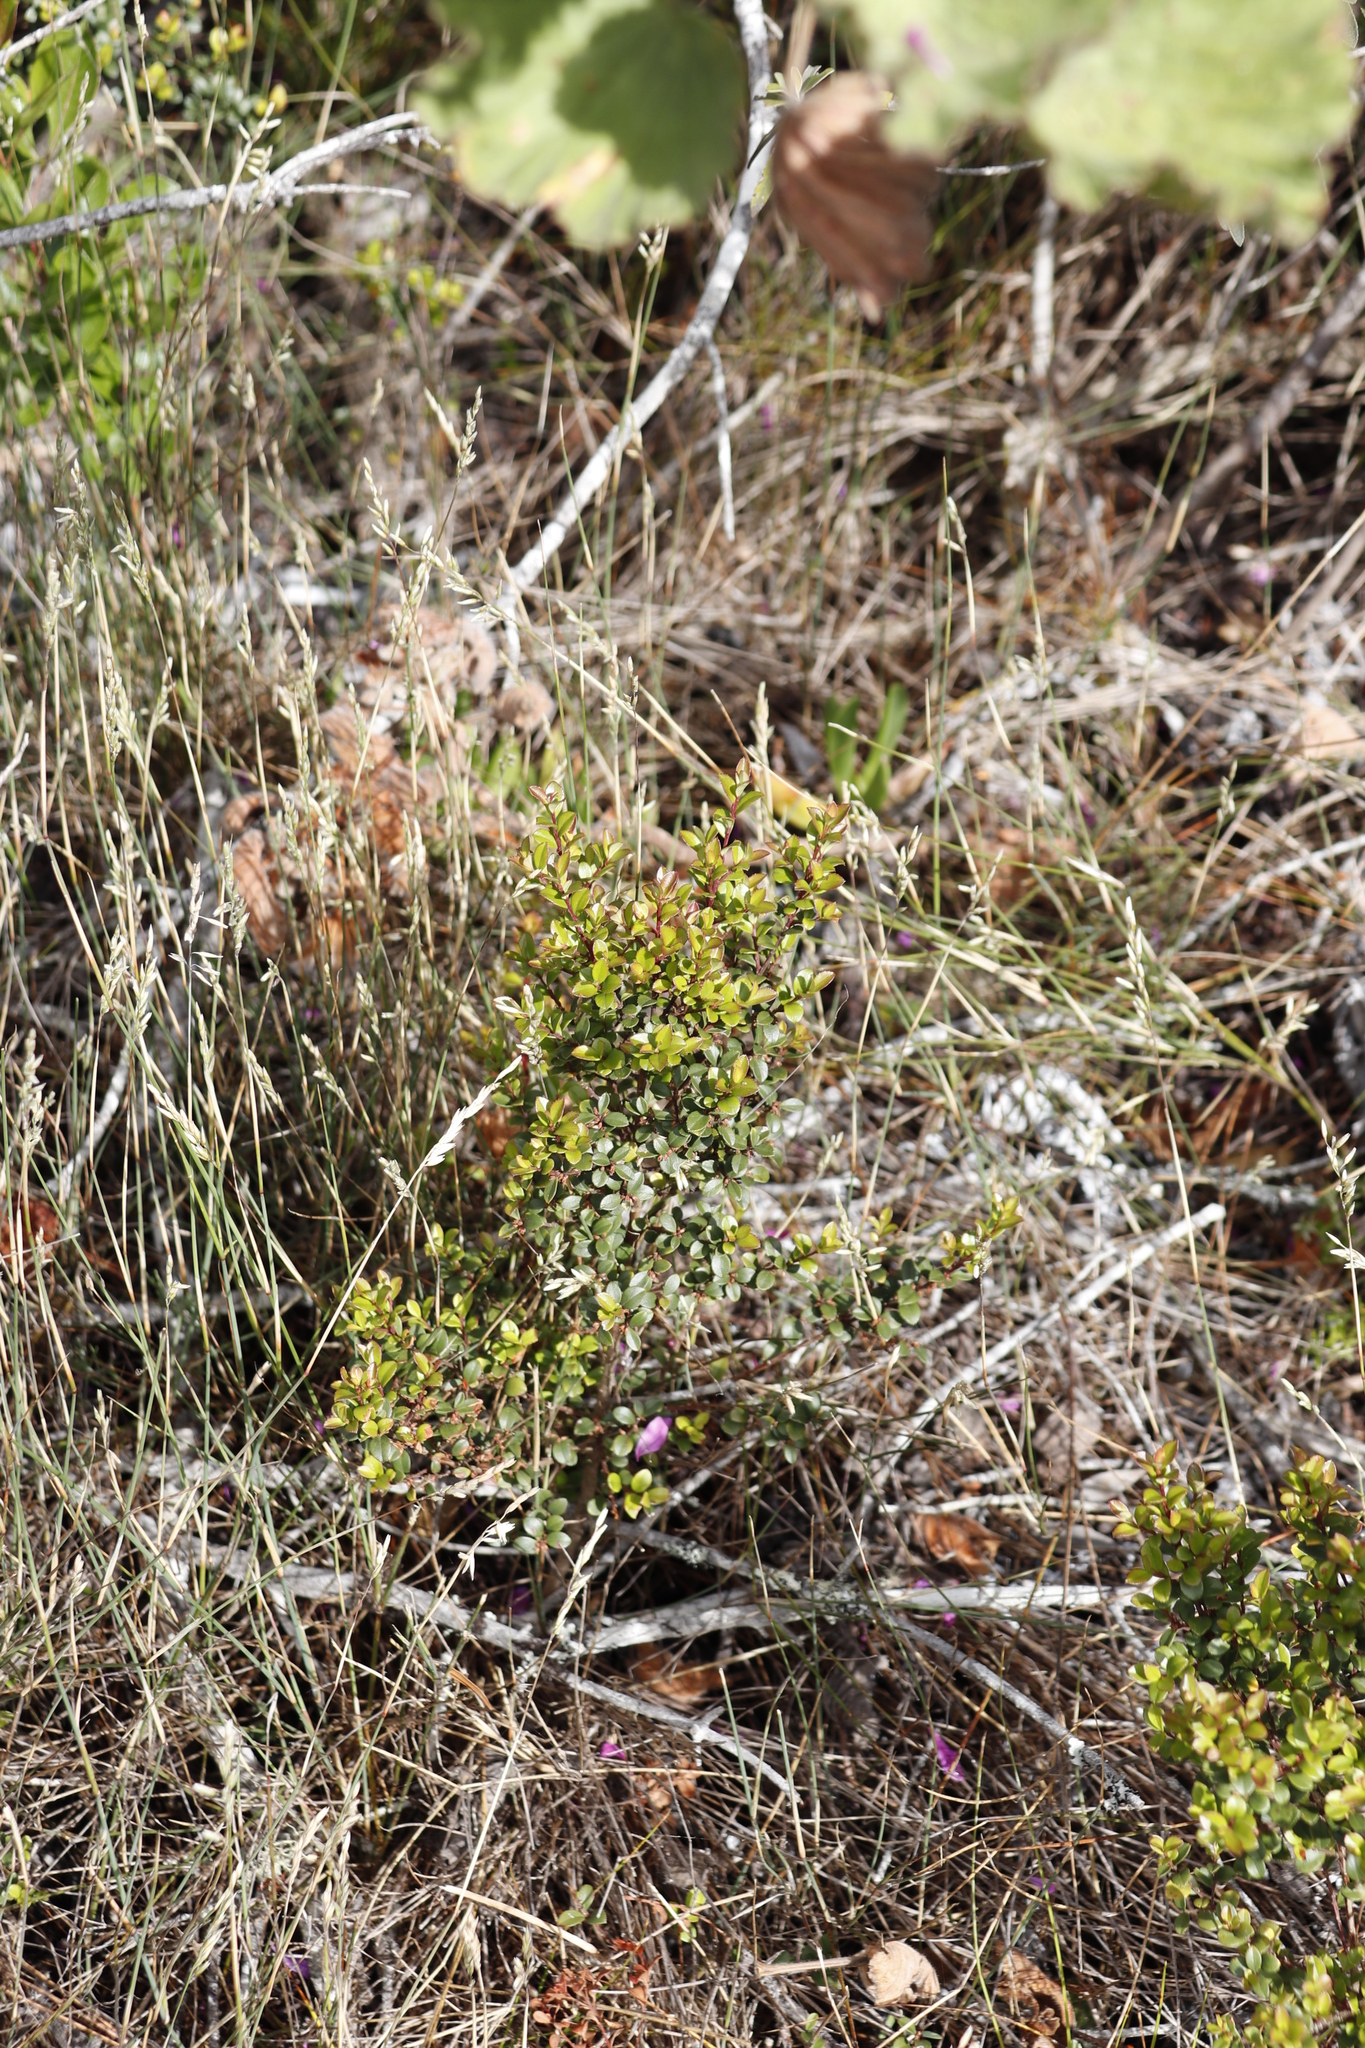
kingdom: Plantae
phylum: Tracheophyta
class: Magnoliopsida
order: Ericales
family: Primulaceae
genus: Myrsine
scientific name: Myrsine africana
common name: African-boxwood
